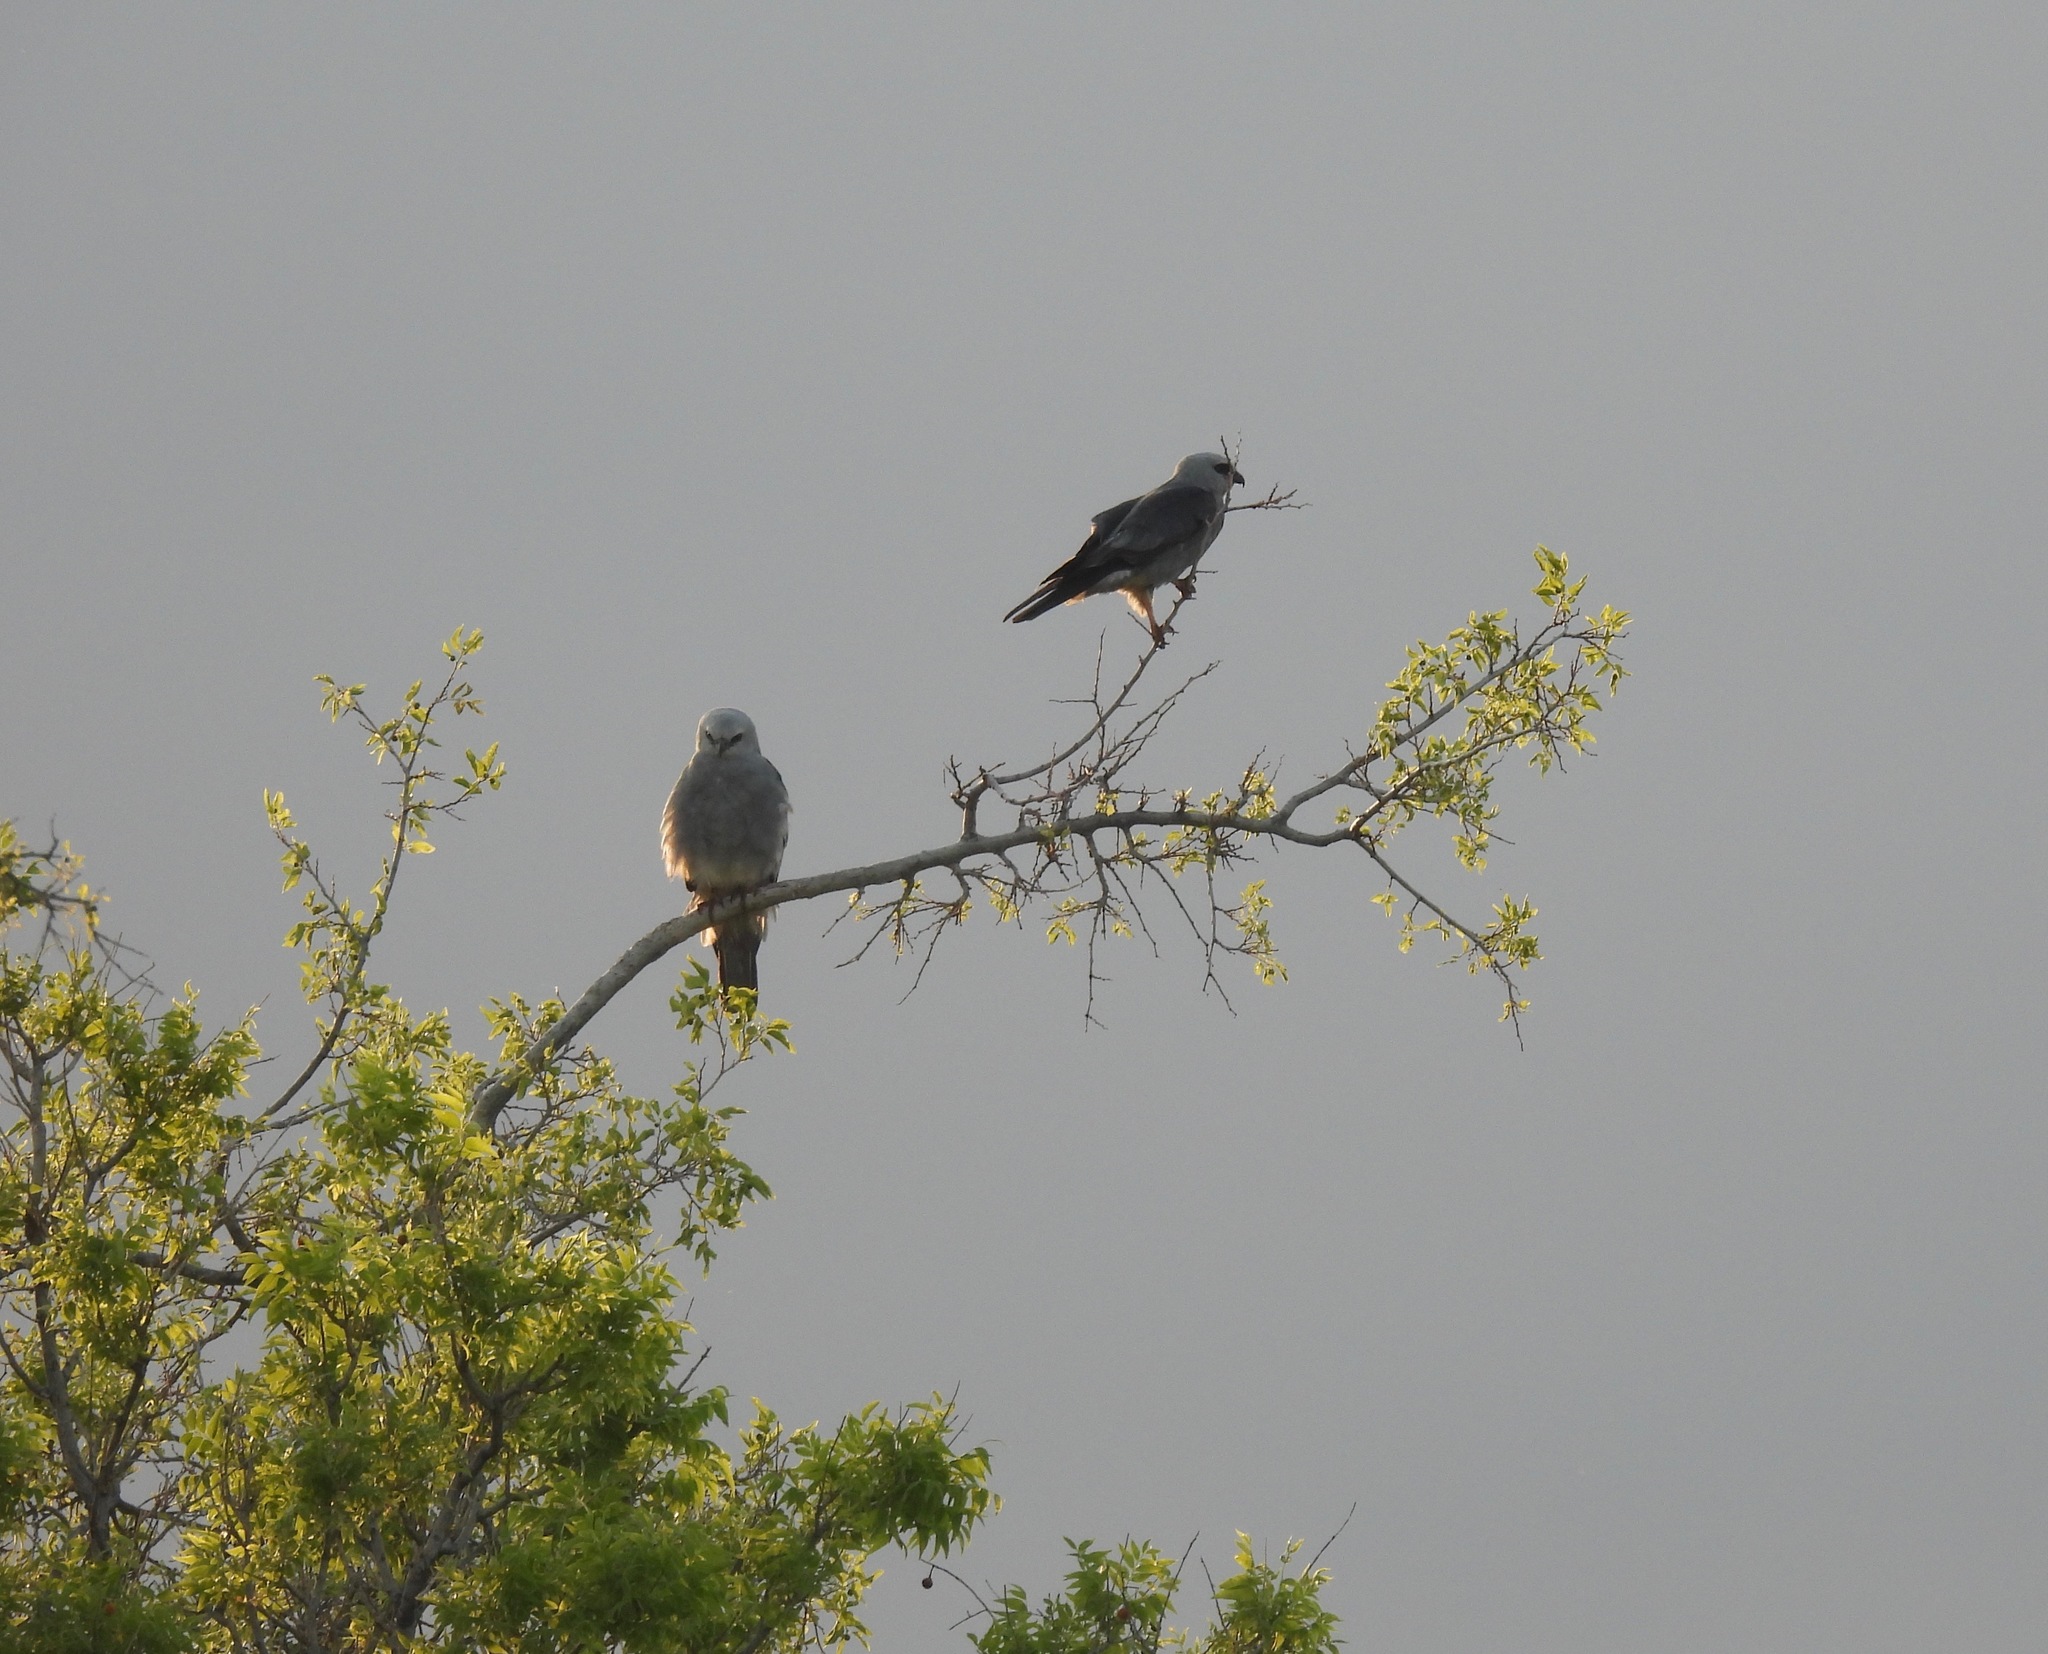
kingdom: Animalia
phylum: Chordata
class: Aves
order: Accipitriformes
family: Accipitridae
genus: Ictinia
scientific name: Ictinia mississippiensis
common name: Mississippi kite
